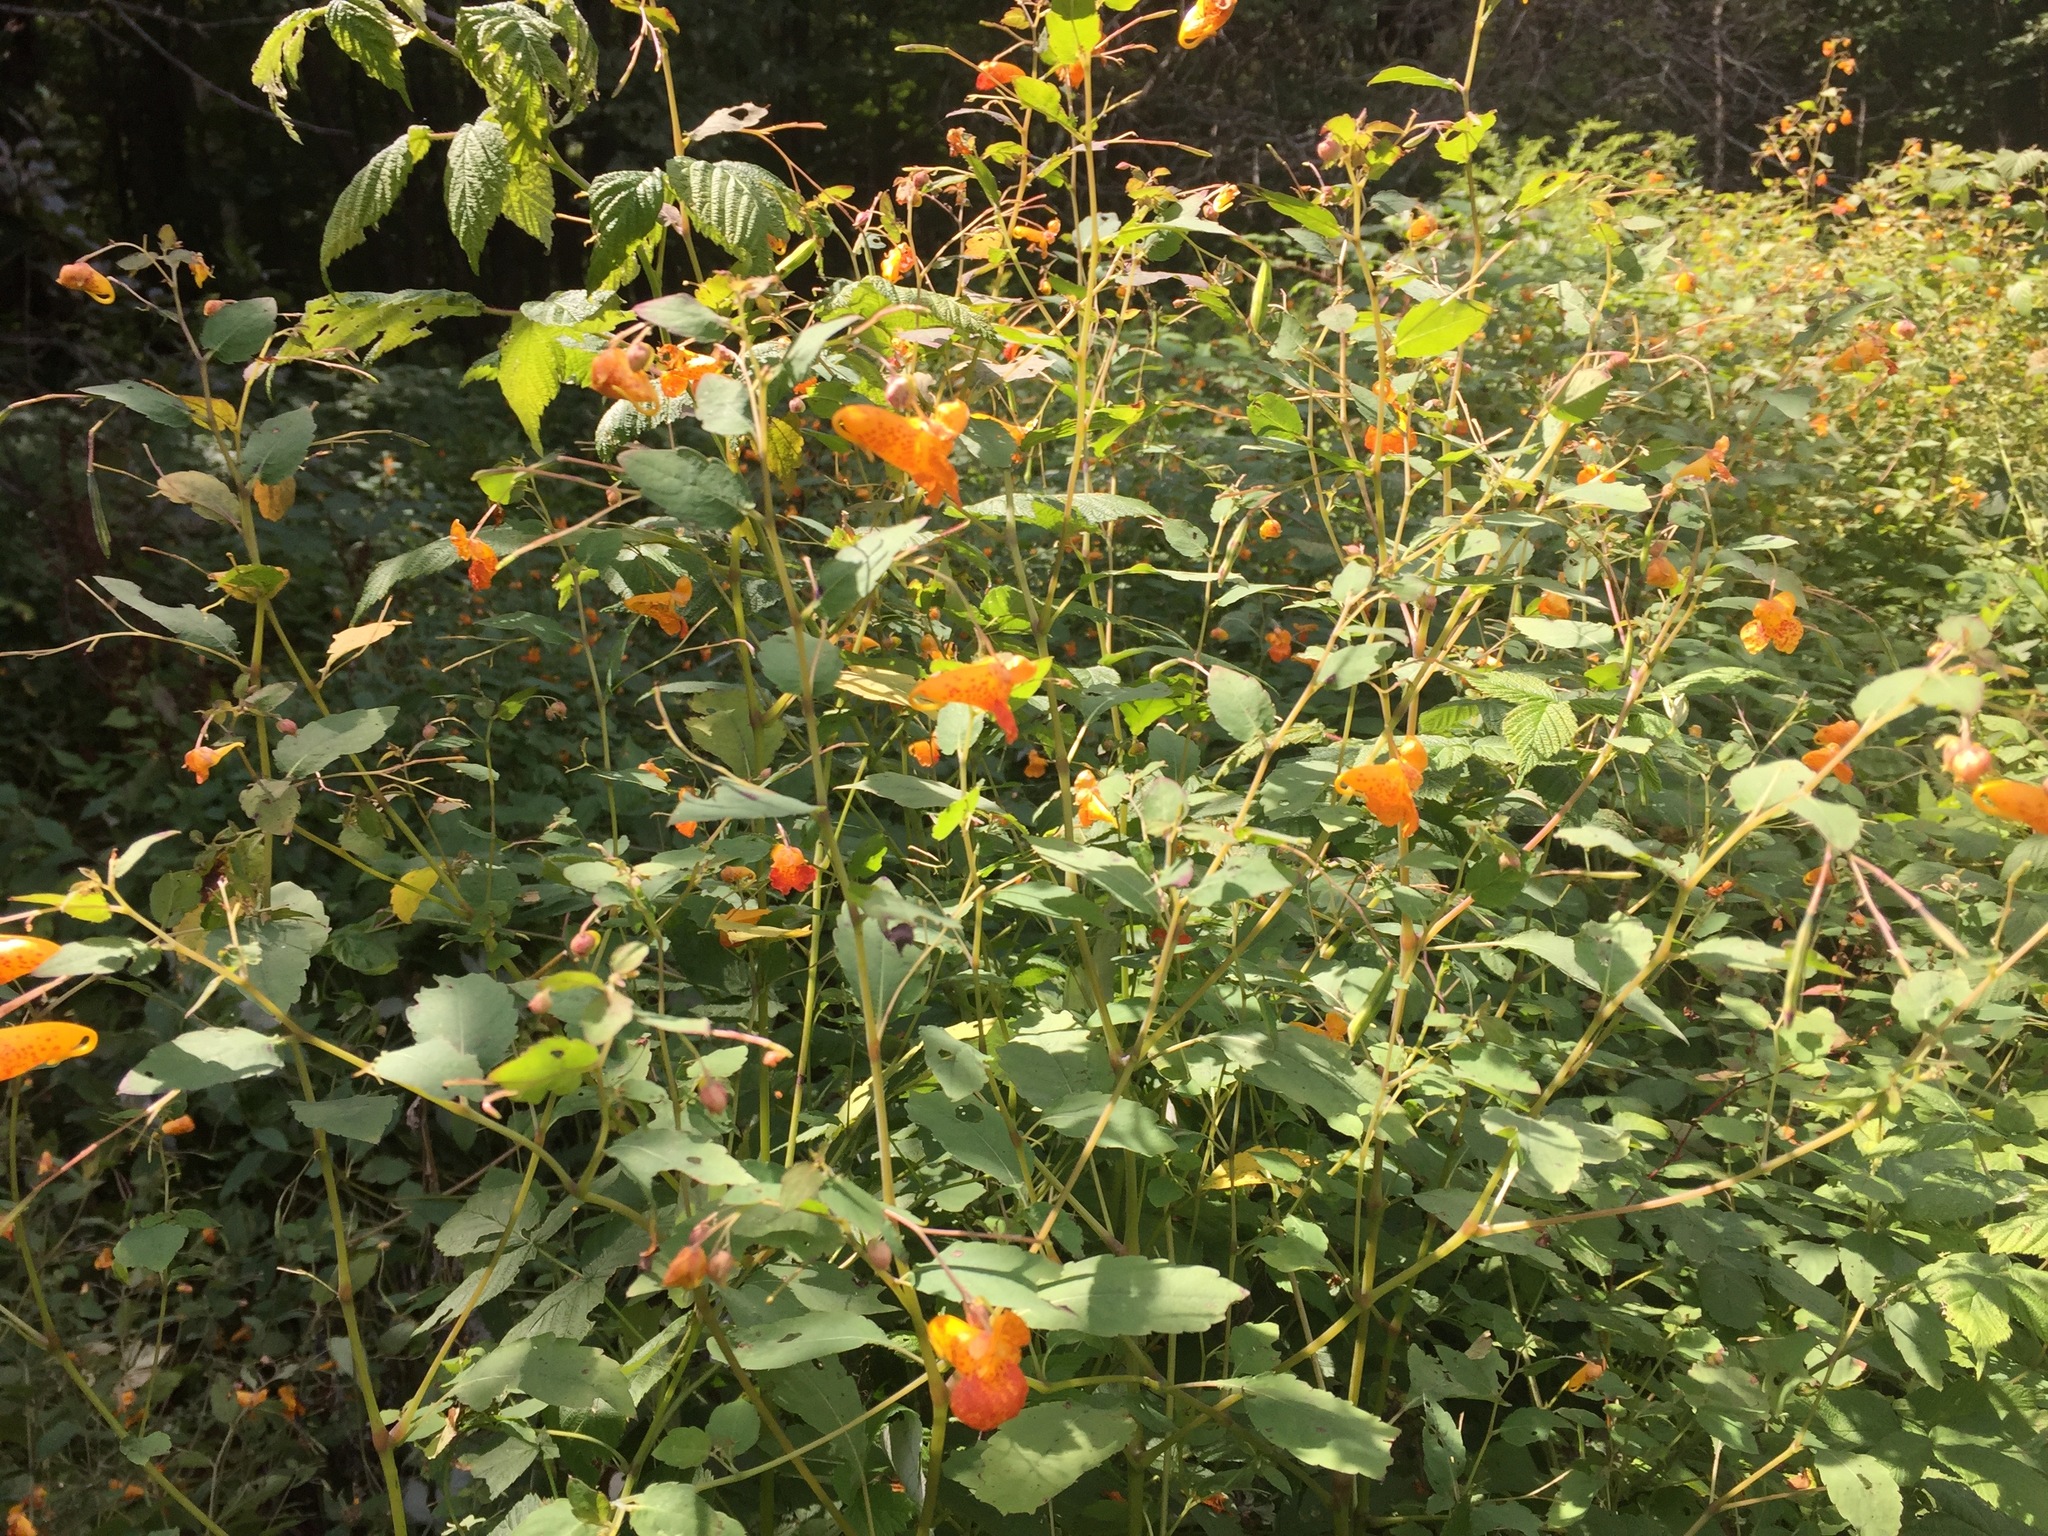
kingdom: Plantae
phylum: Tracheophyta
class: Magnoliopsida
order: Ericales
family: Balsaminaceae
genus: Impatiens
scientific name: Impatiens capensis
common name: Orange balsam
